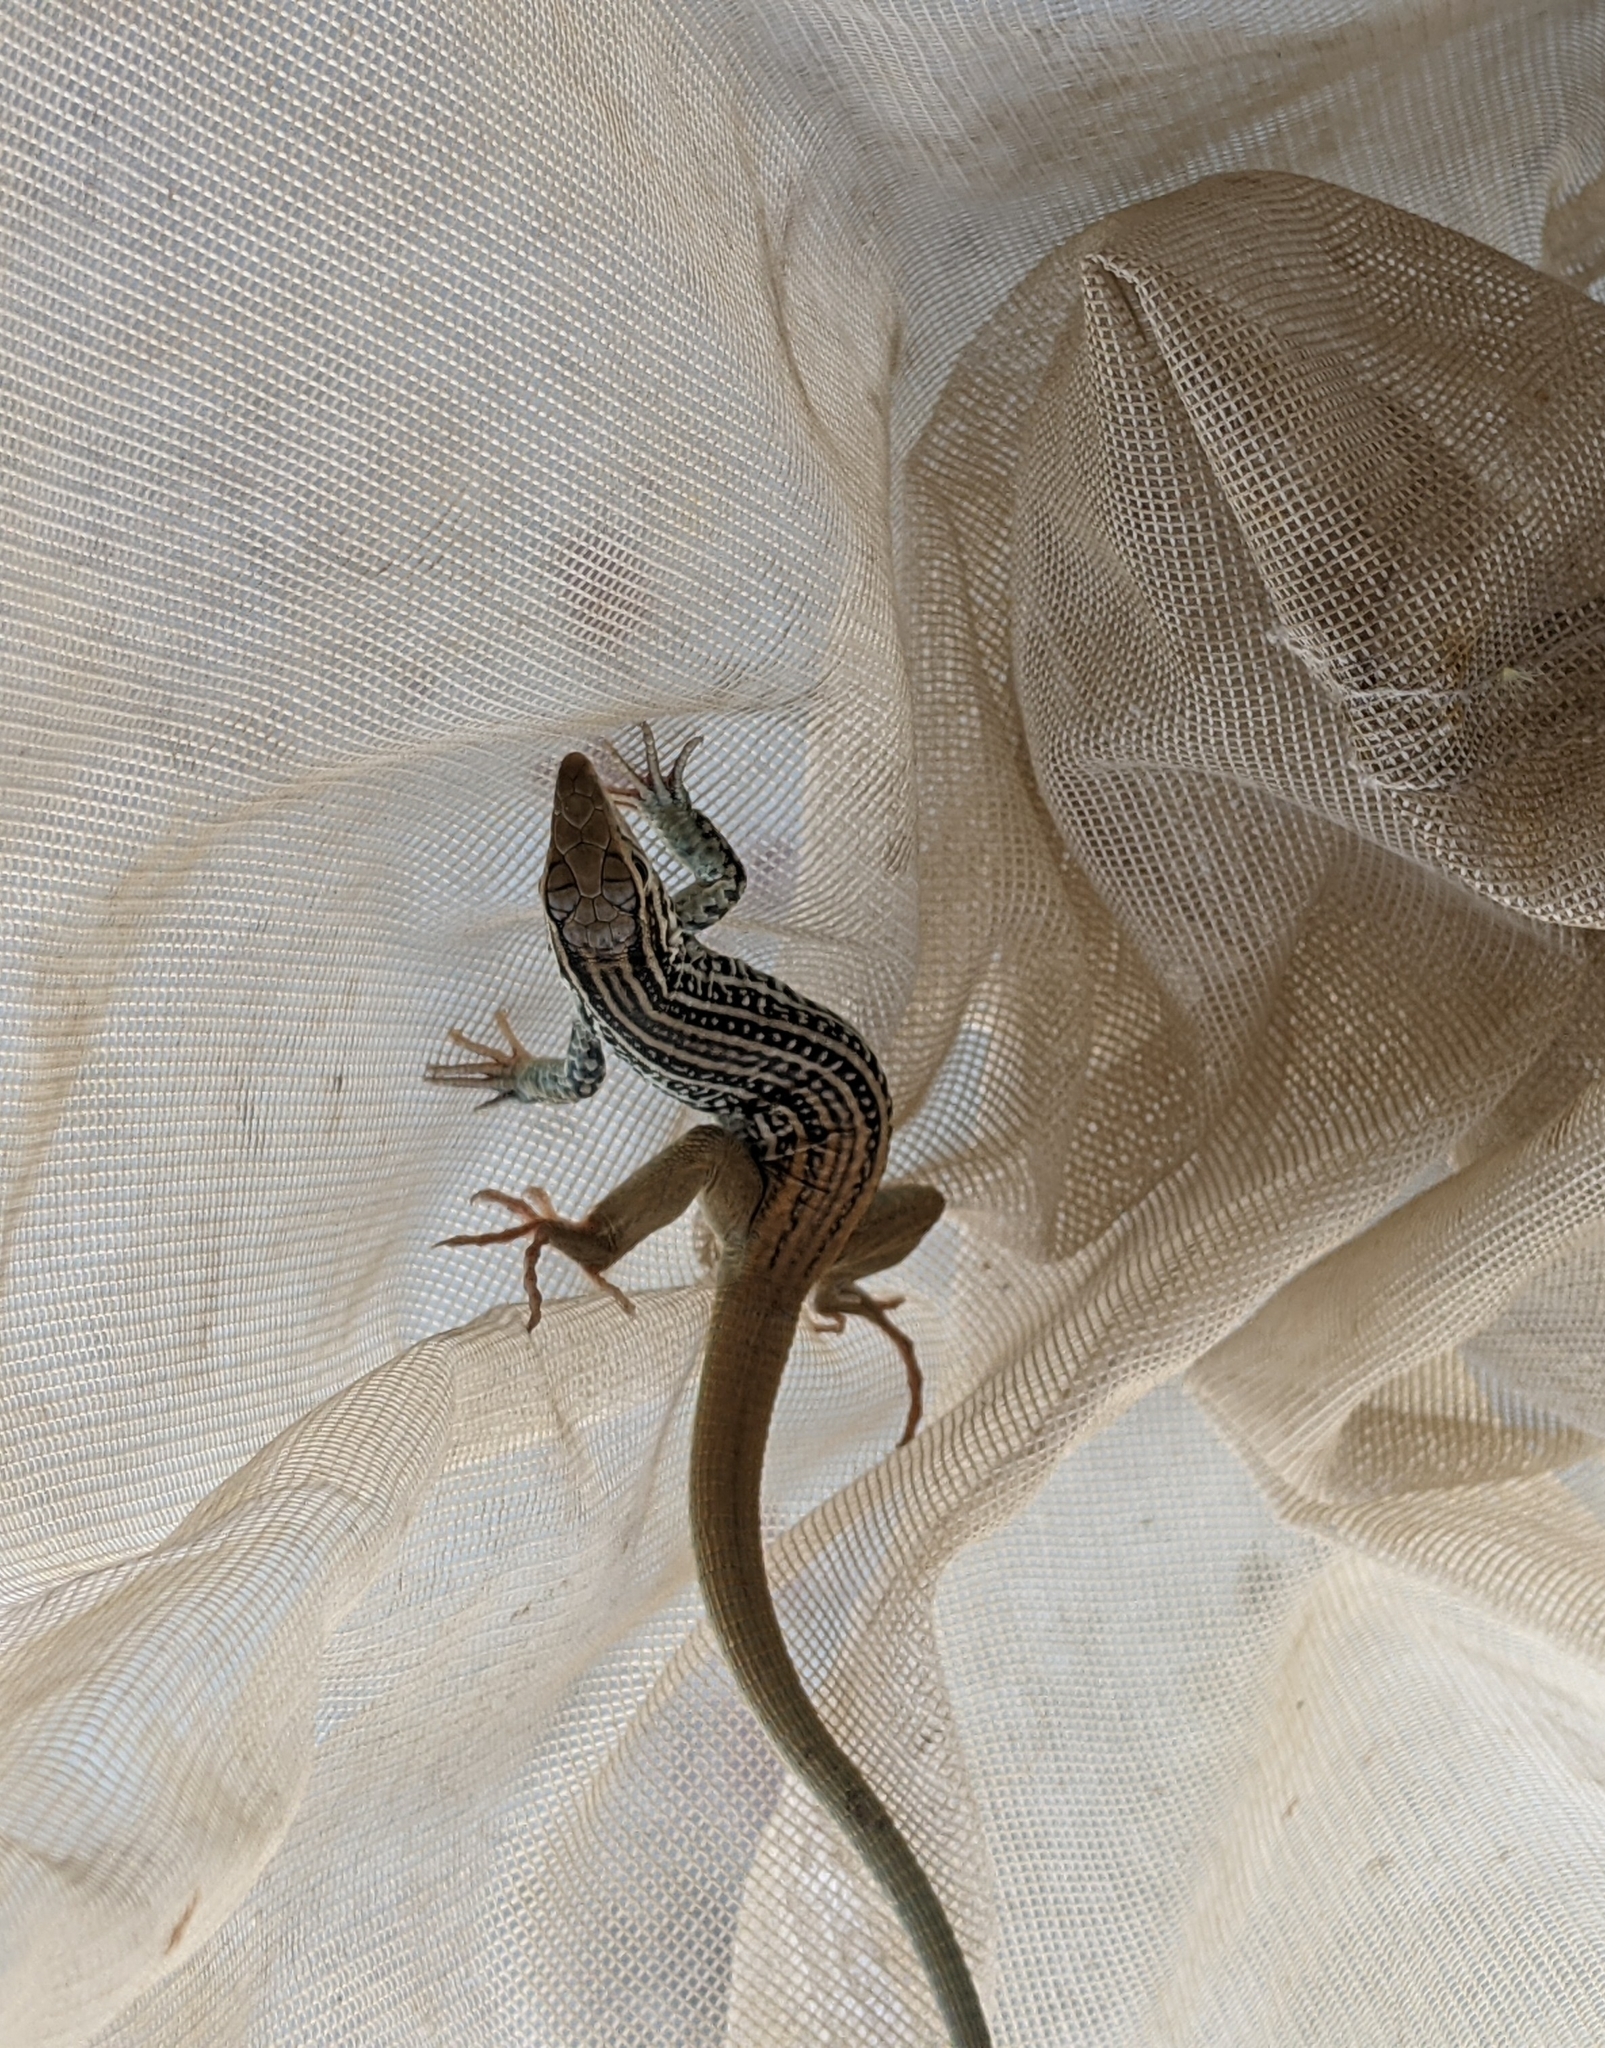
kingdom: Animalia
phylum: Chordata
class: Squamata
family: Teiidae
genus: Aspidoscelis
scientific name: Aspidoscelis scalaris
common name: Rusty-rumped whiptail
